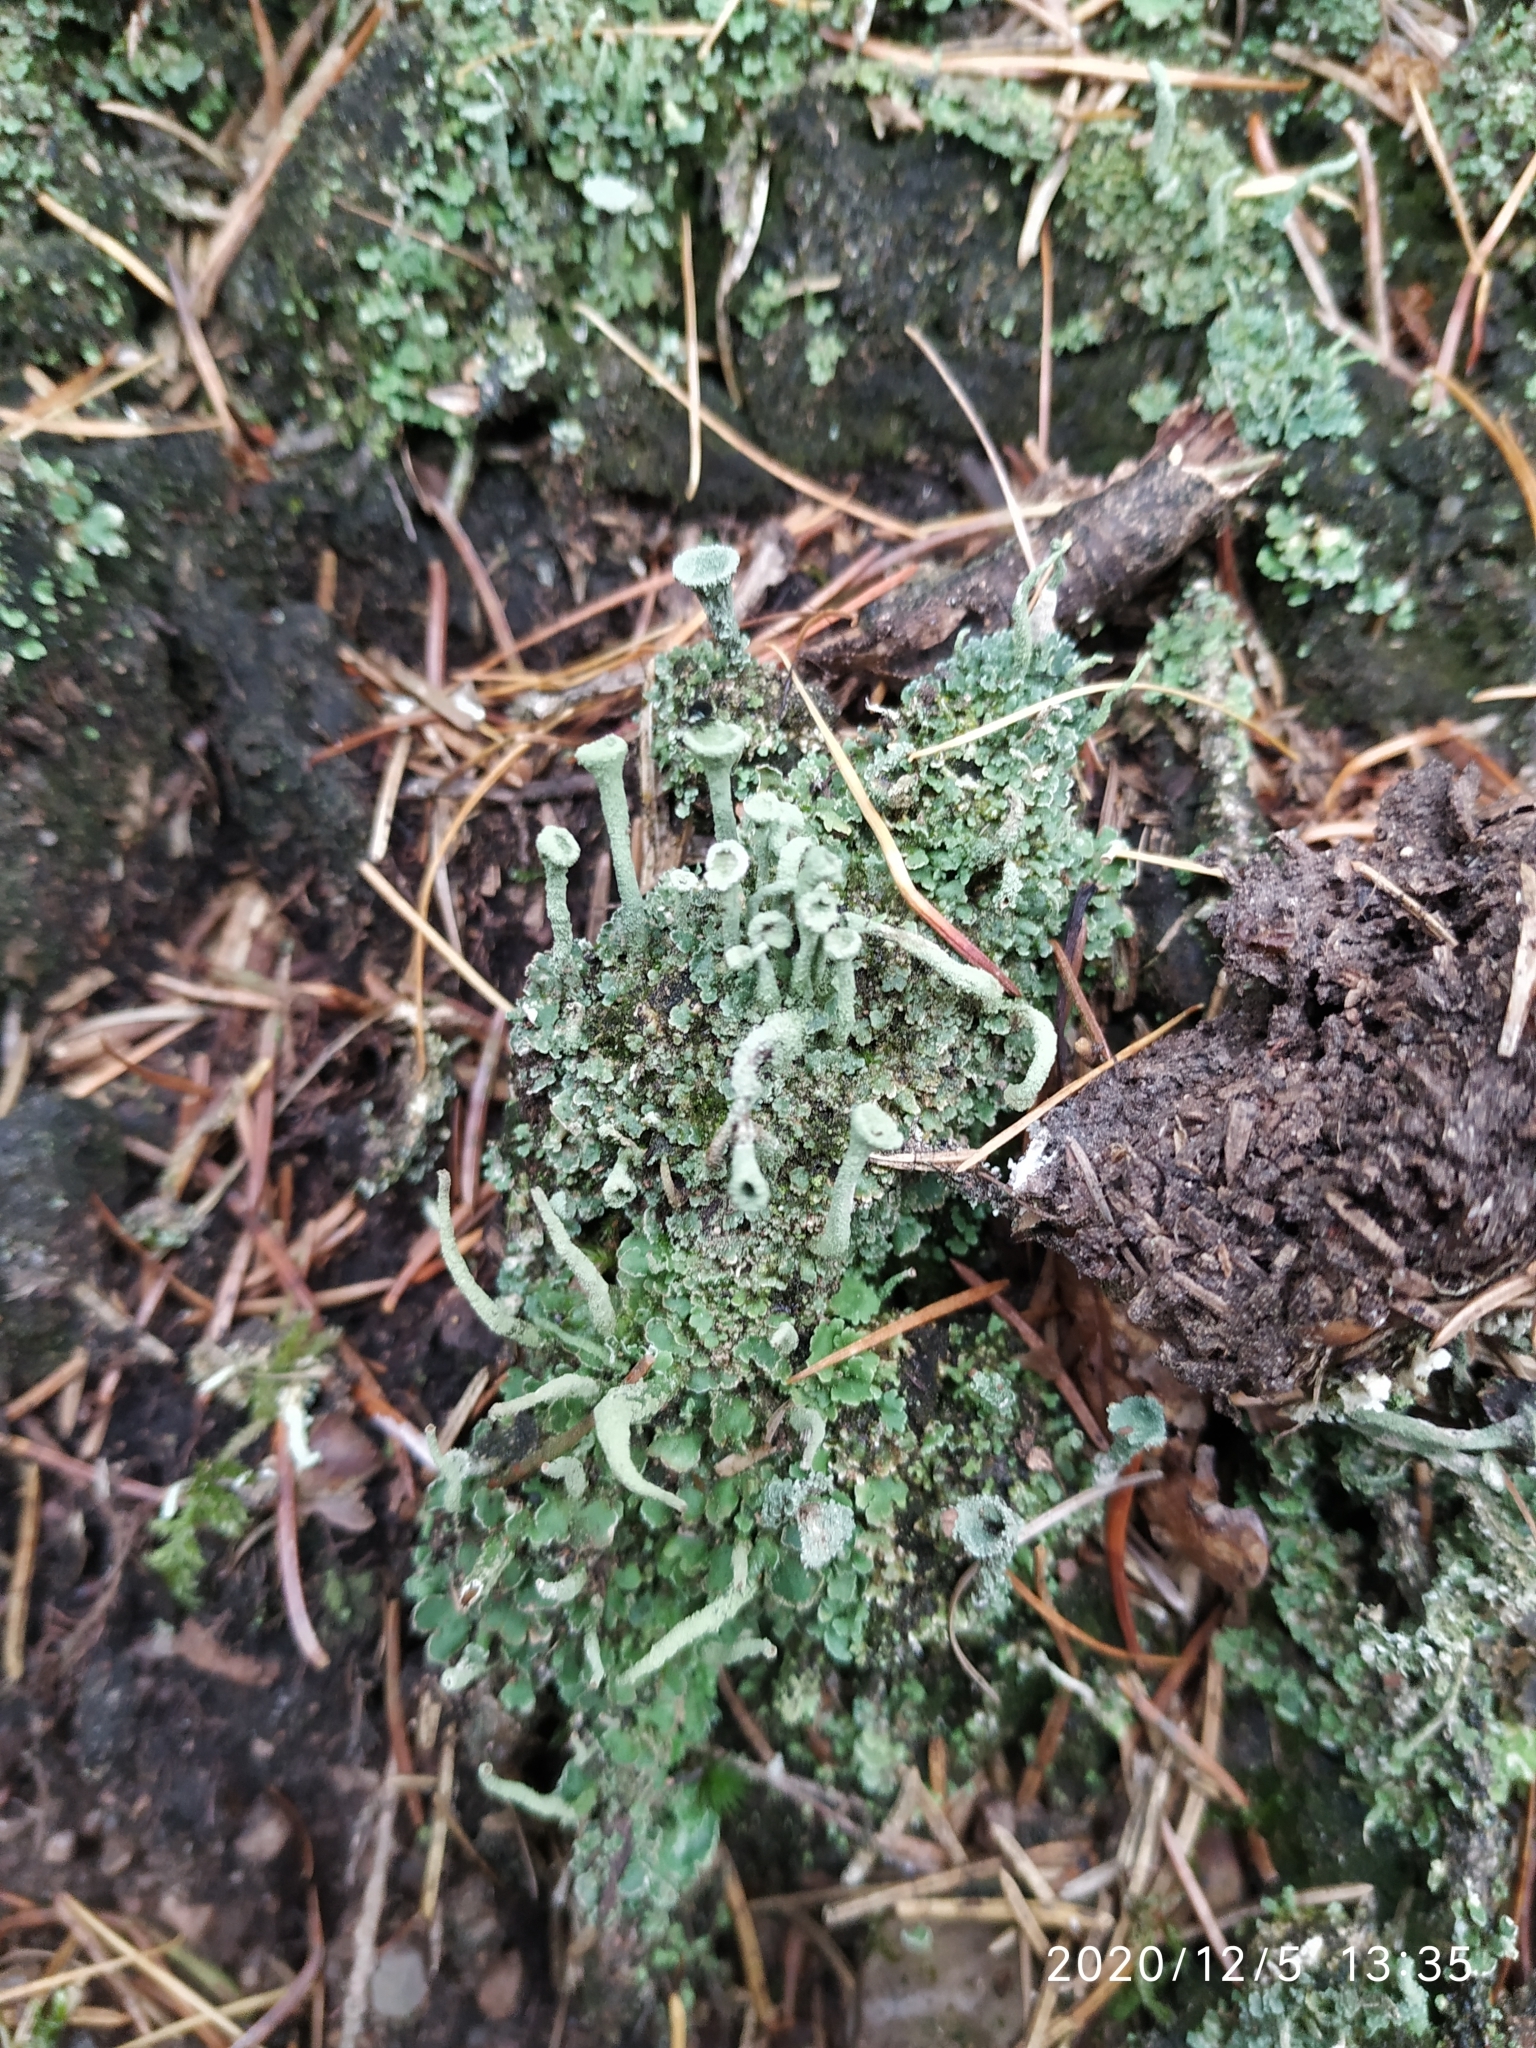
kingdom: Fungi
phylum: Ascomycota
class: Lecanoromycetes
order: Lecanorales
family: Cladoniaceae
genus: Cladonia
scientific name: Cladonia fimbriata
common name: Powdered trumpet lichen
